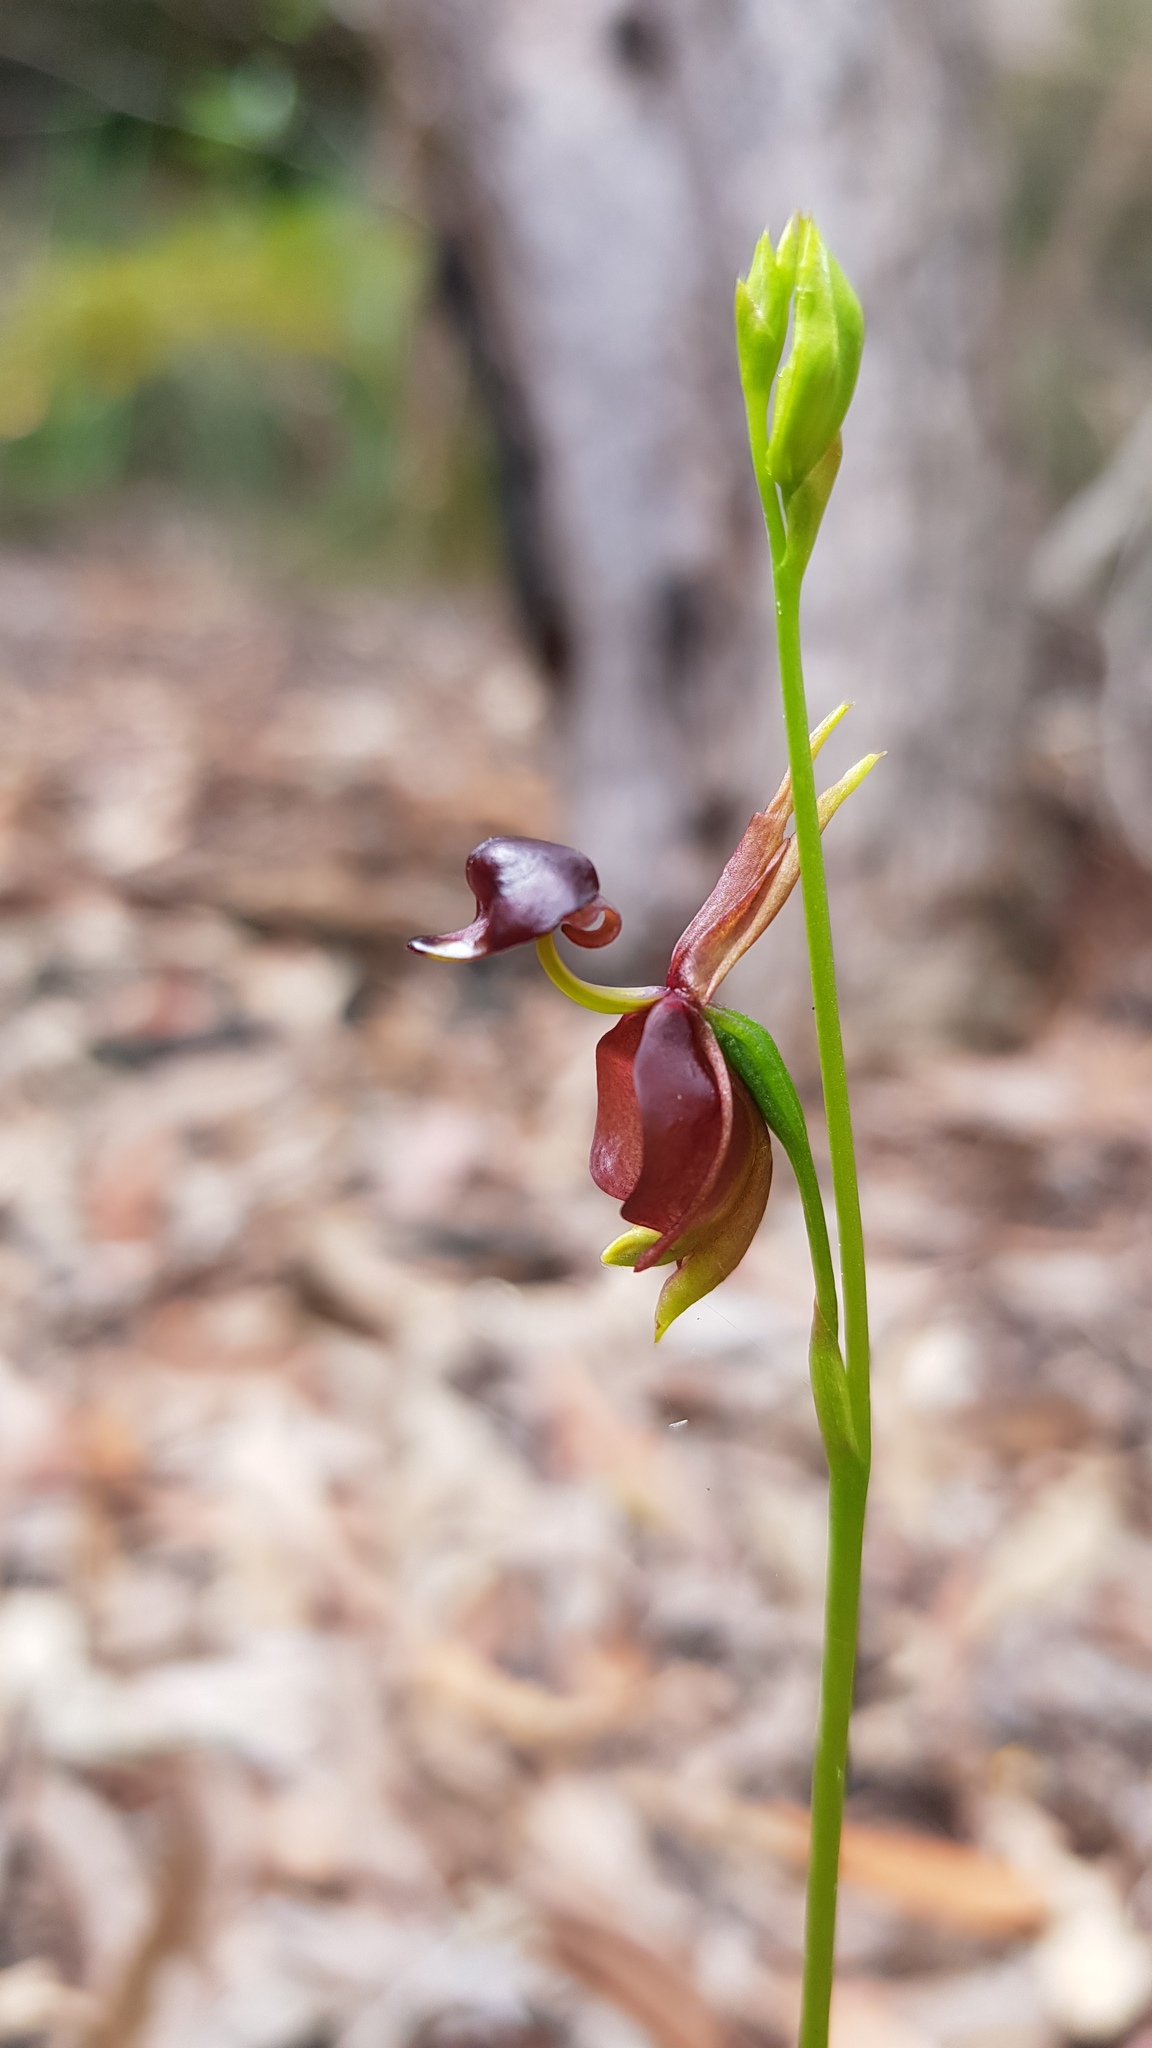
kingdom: Plantae
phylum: Tracheophyta
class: Liliopsida
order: Asparagales
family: Orchidaceae
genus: Caleana
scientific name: Caleana major
